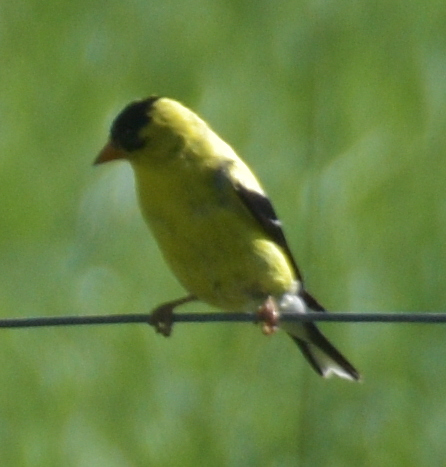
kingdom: Animalia
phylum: Chordata
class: Aves
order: Passeriformes
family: Fringillidae
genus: Spinus
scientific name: Spinus tristis
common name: American goldfinch
